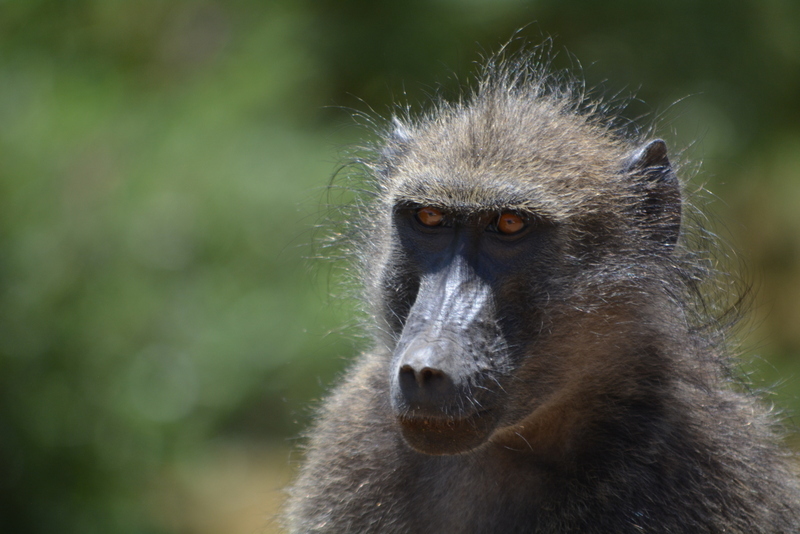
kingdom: Animalia
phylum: Chordata
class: Mammalia
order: Primates
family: Cercopithecidae
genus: Papio
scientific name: Papio ursinus
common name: Chacma baboon
